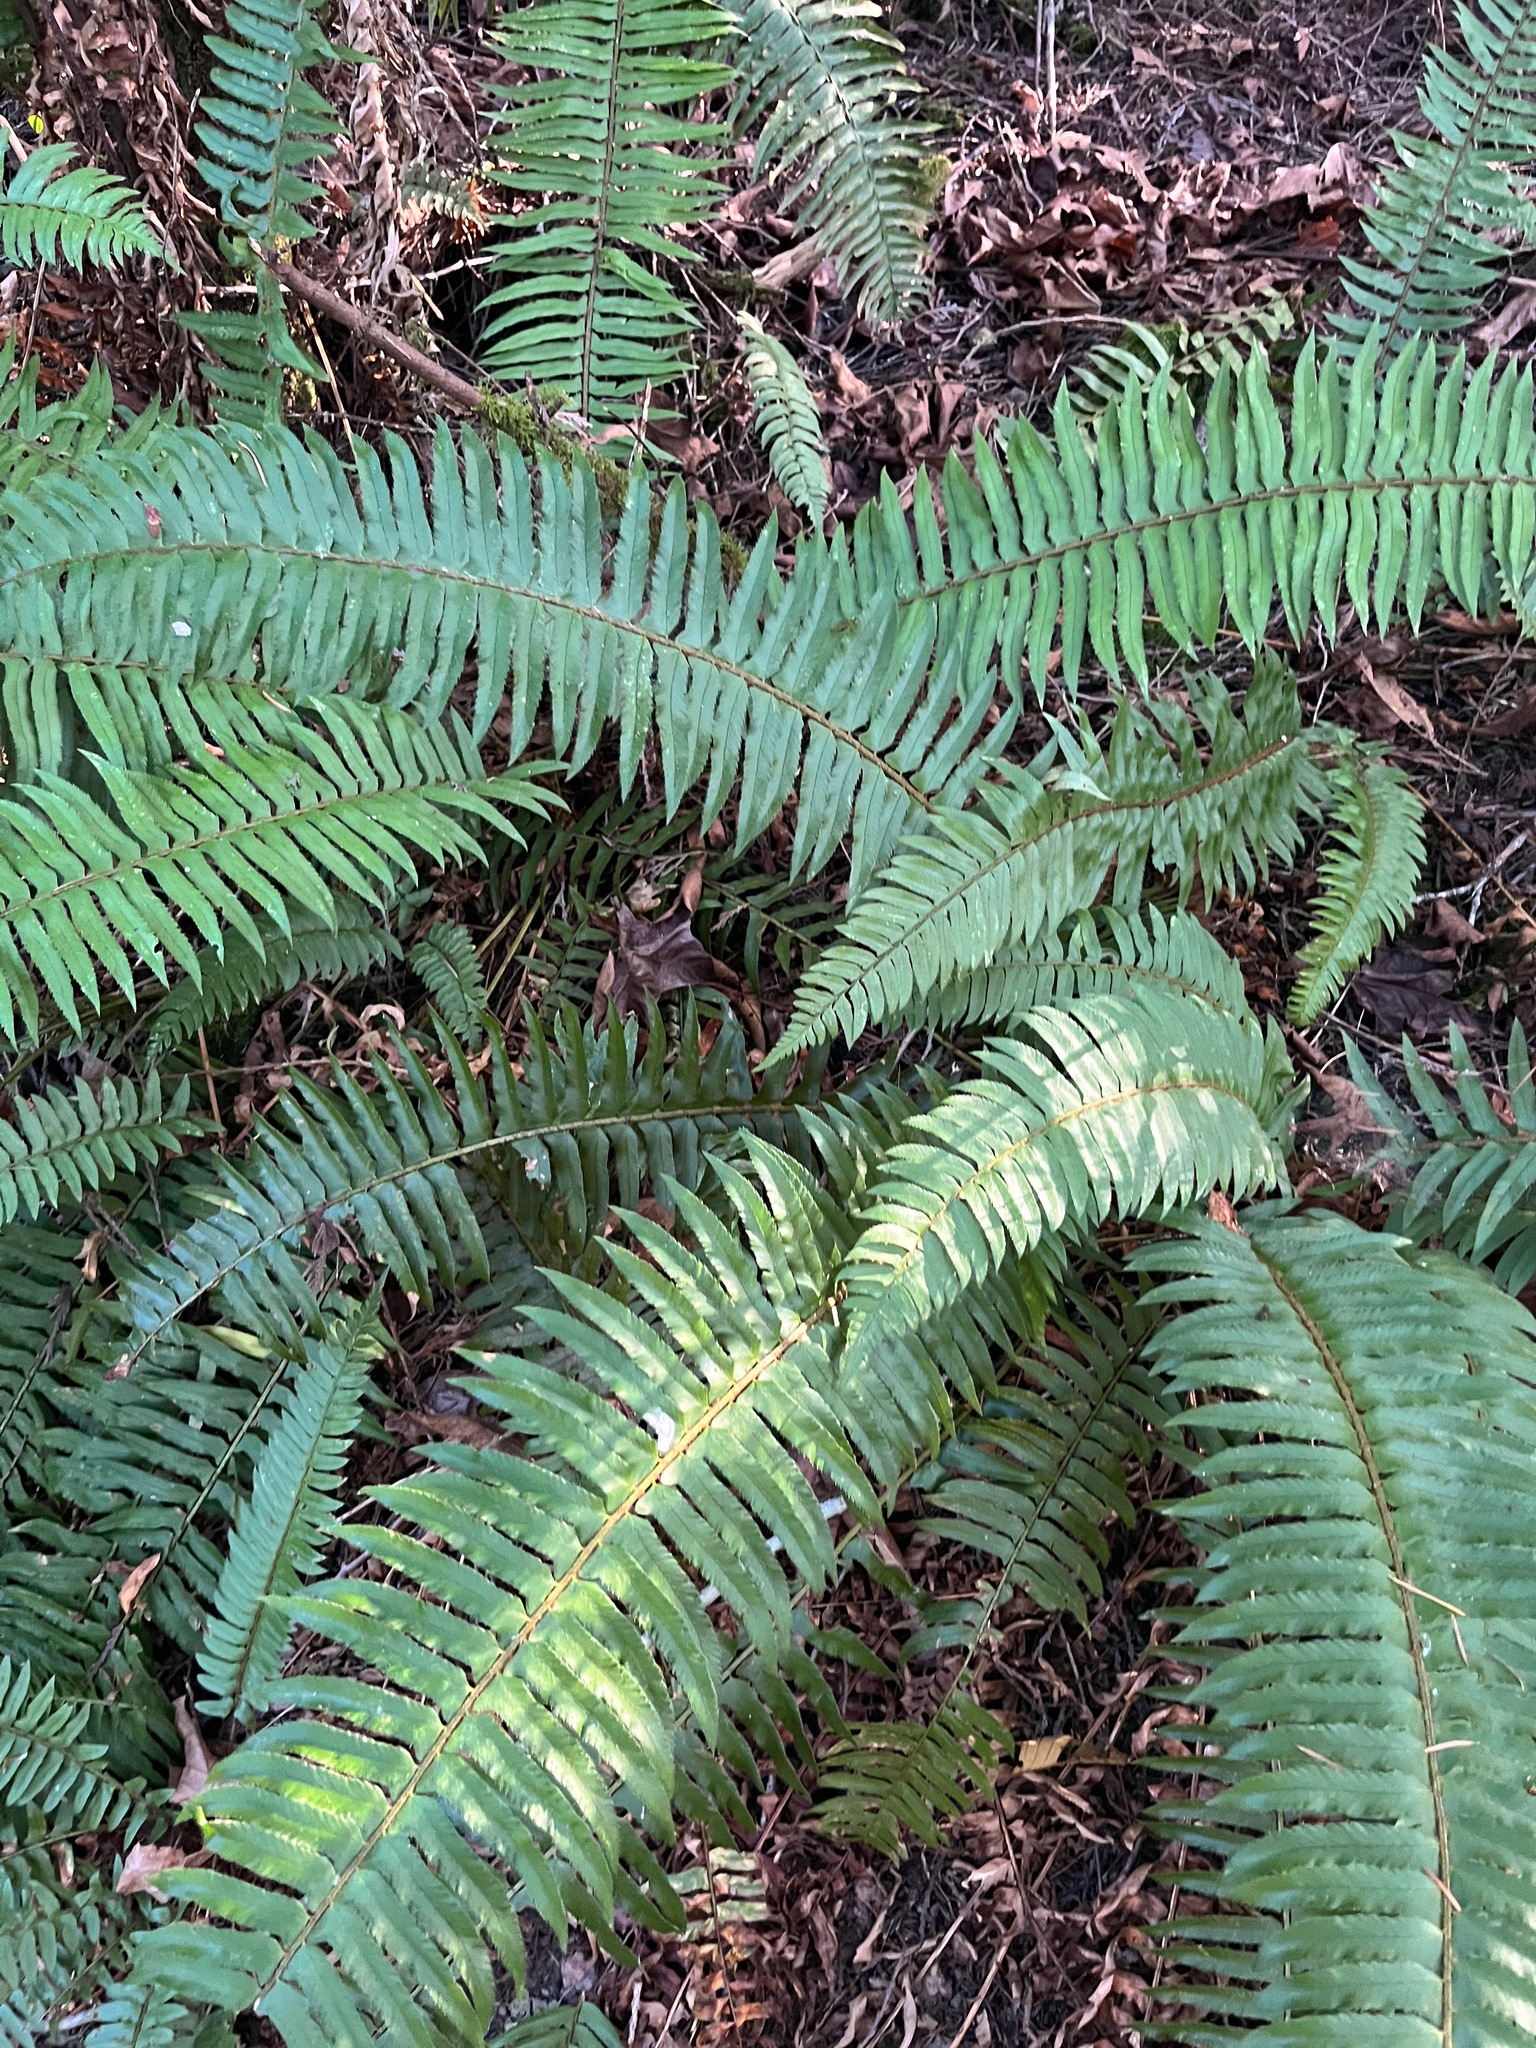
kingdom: Plantae
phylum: Tracheophyta
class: Polypodiopsida
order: Polypodiales
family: Dryopteridaceae
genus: Polystichum
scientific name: Polystichum munitum
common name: Western sword-fern
